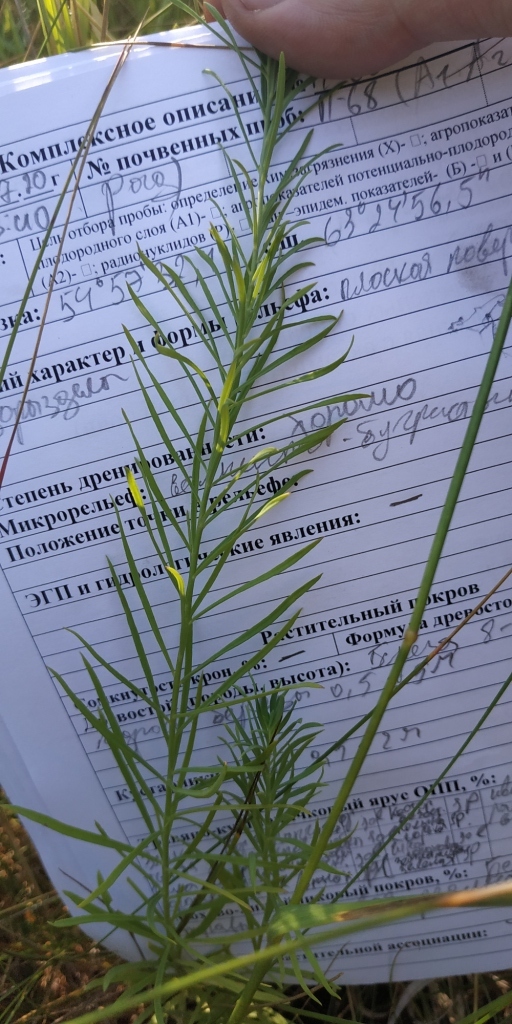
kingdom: Plantae
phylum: Tracheophyta
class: Magnoliopsida
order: Lamiales
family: Plantaginaceae
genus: Linaria
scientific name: Linaria vulgaris
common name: Butter and eggs
